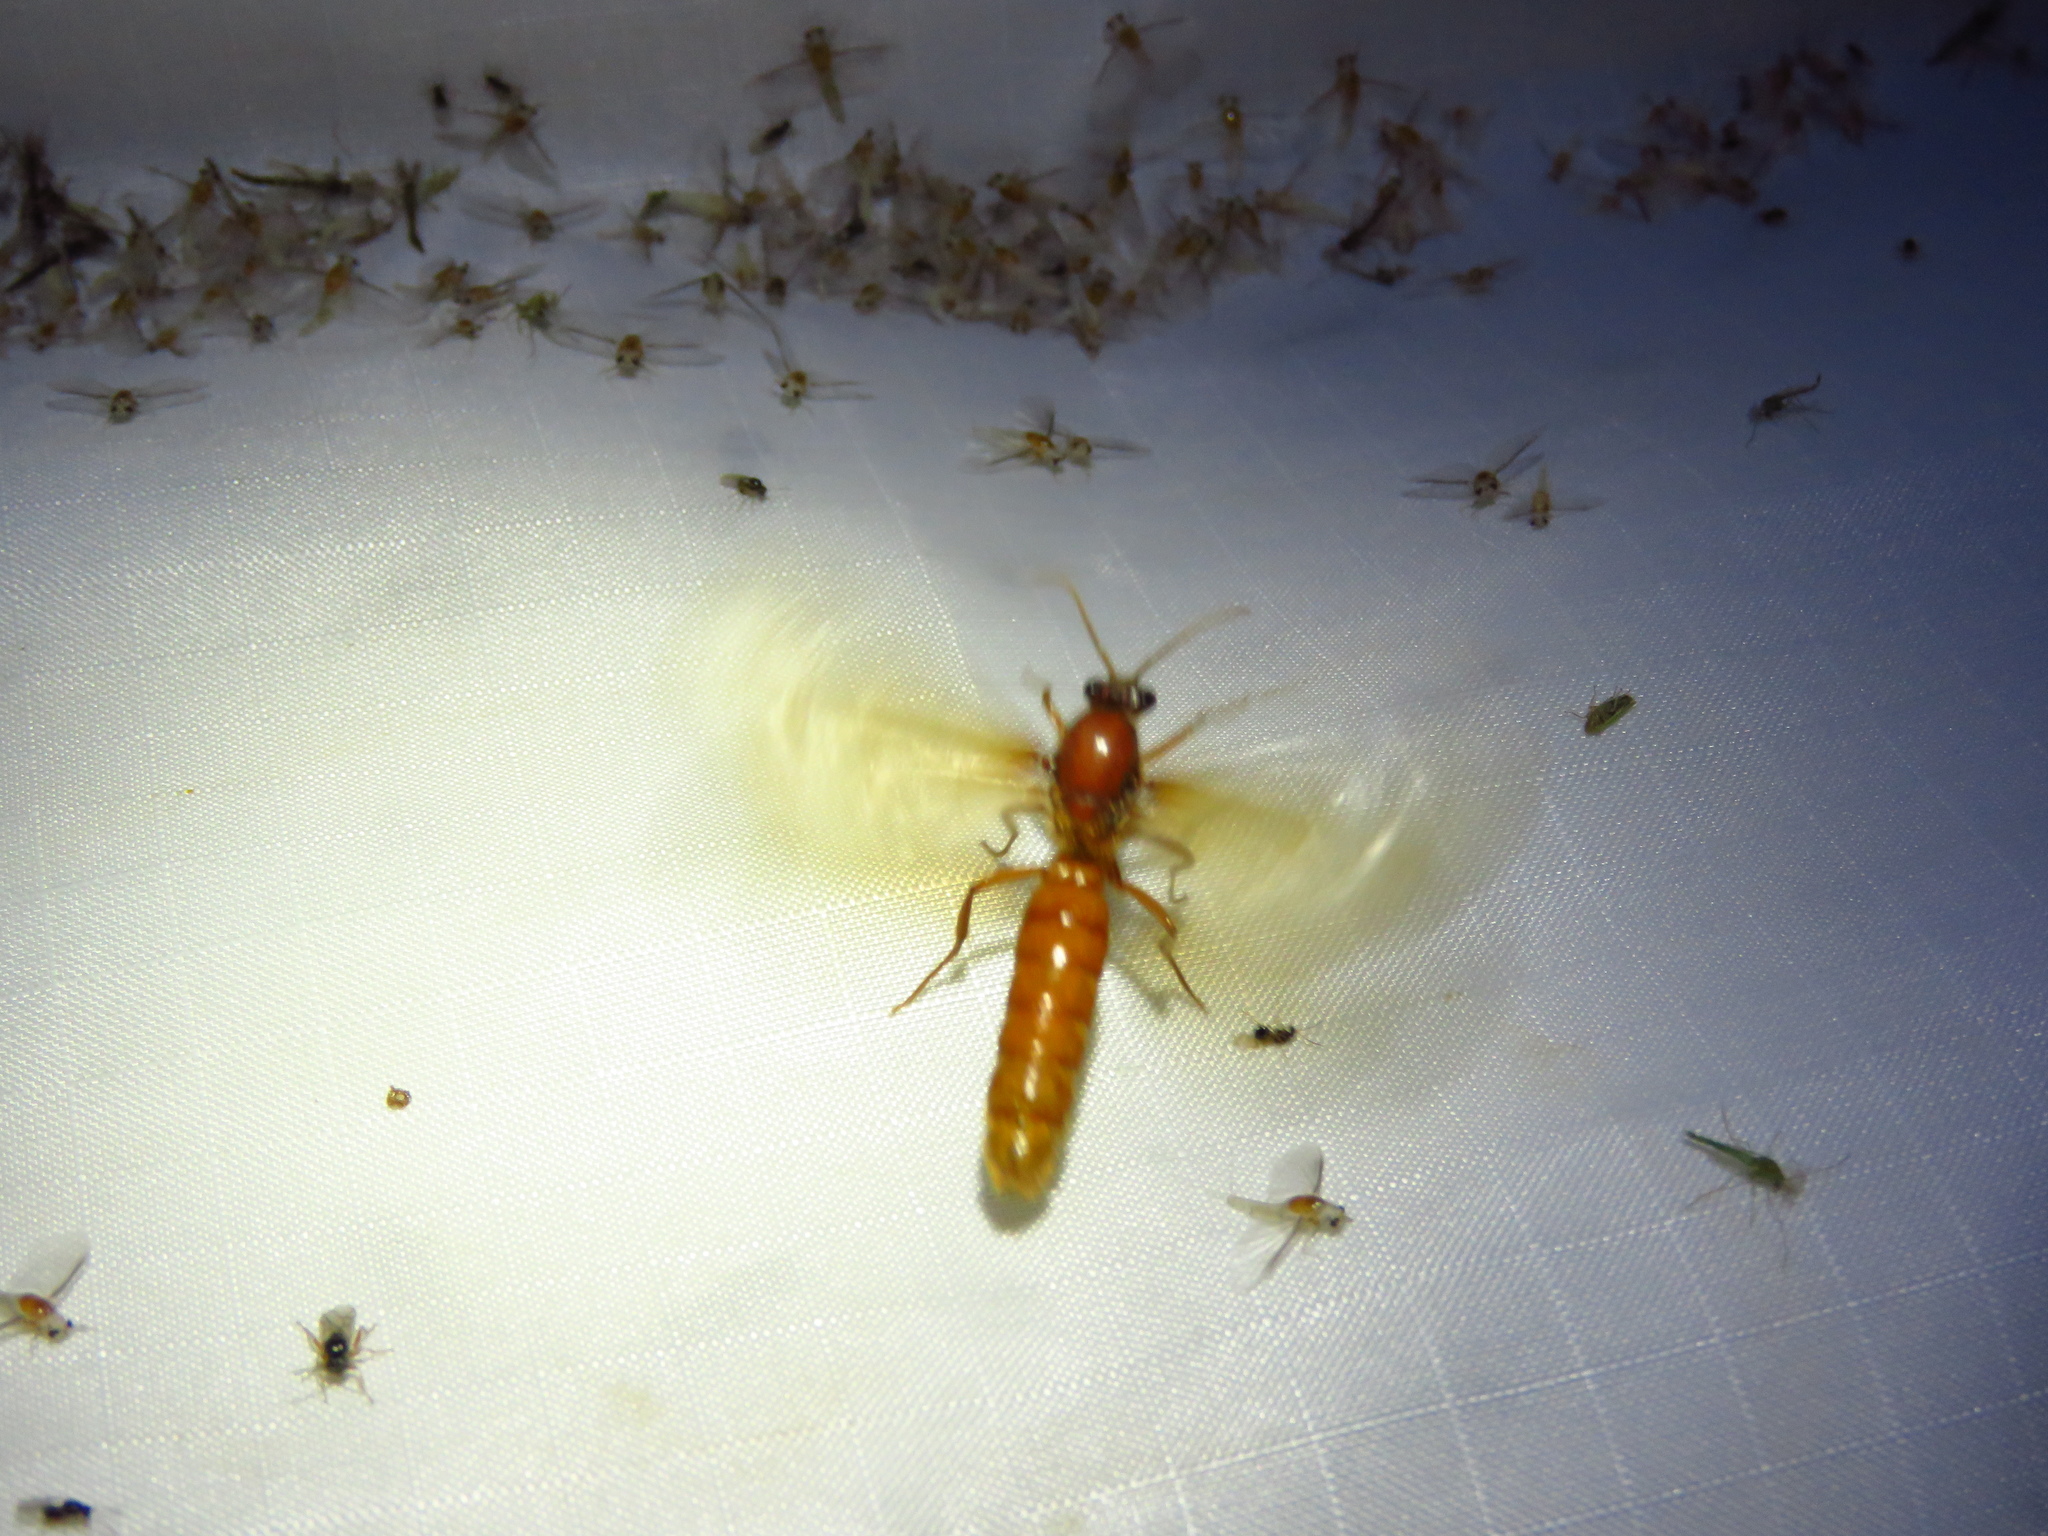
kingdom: Animalia
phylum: Arthropoda
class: Insecta
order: Hymenoptera
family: Formicidae
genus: Labidus
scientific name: Labidus coecus
